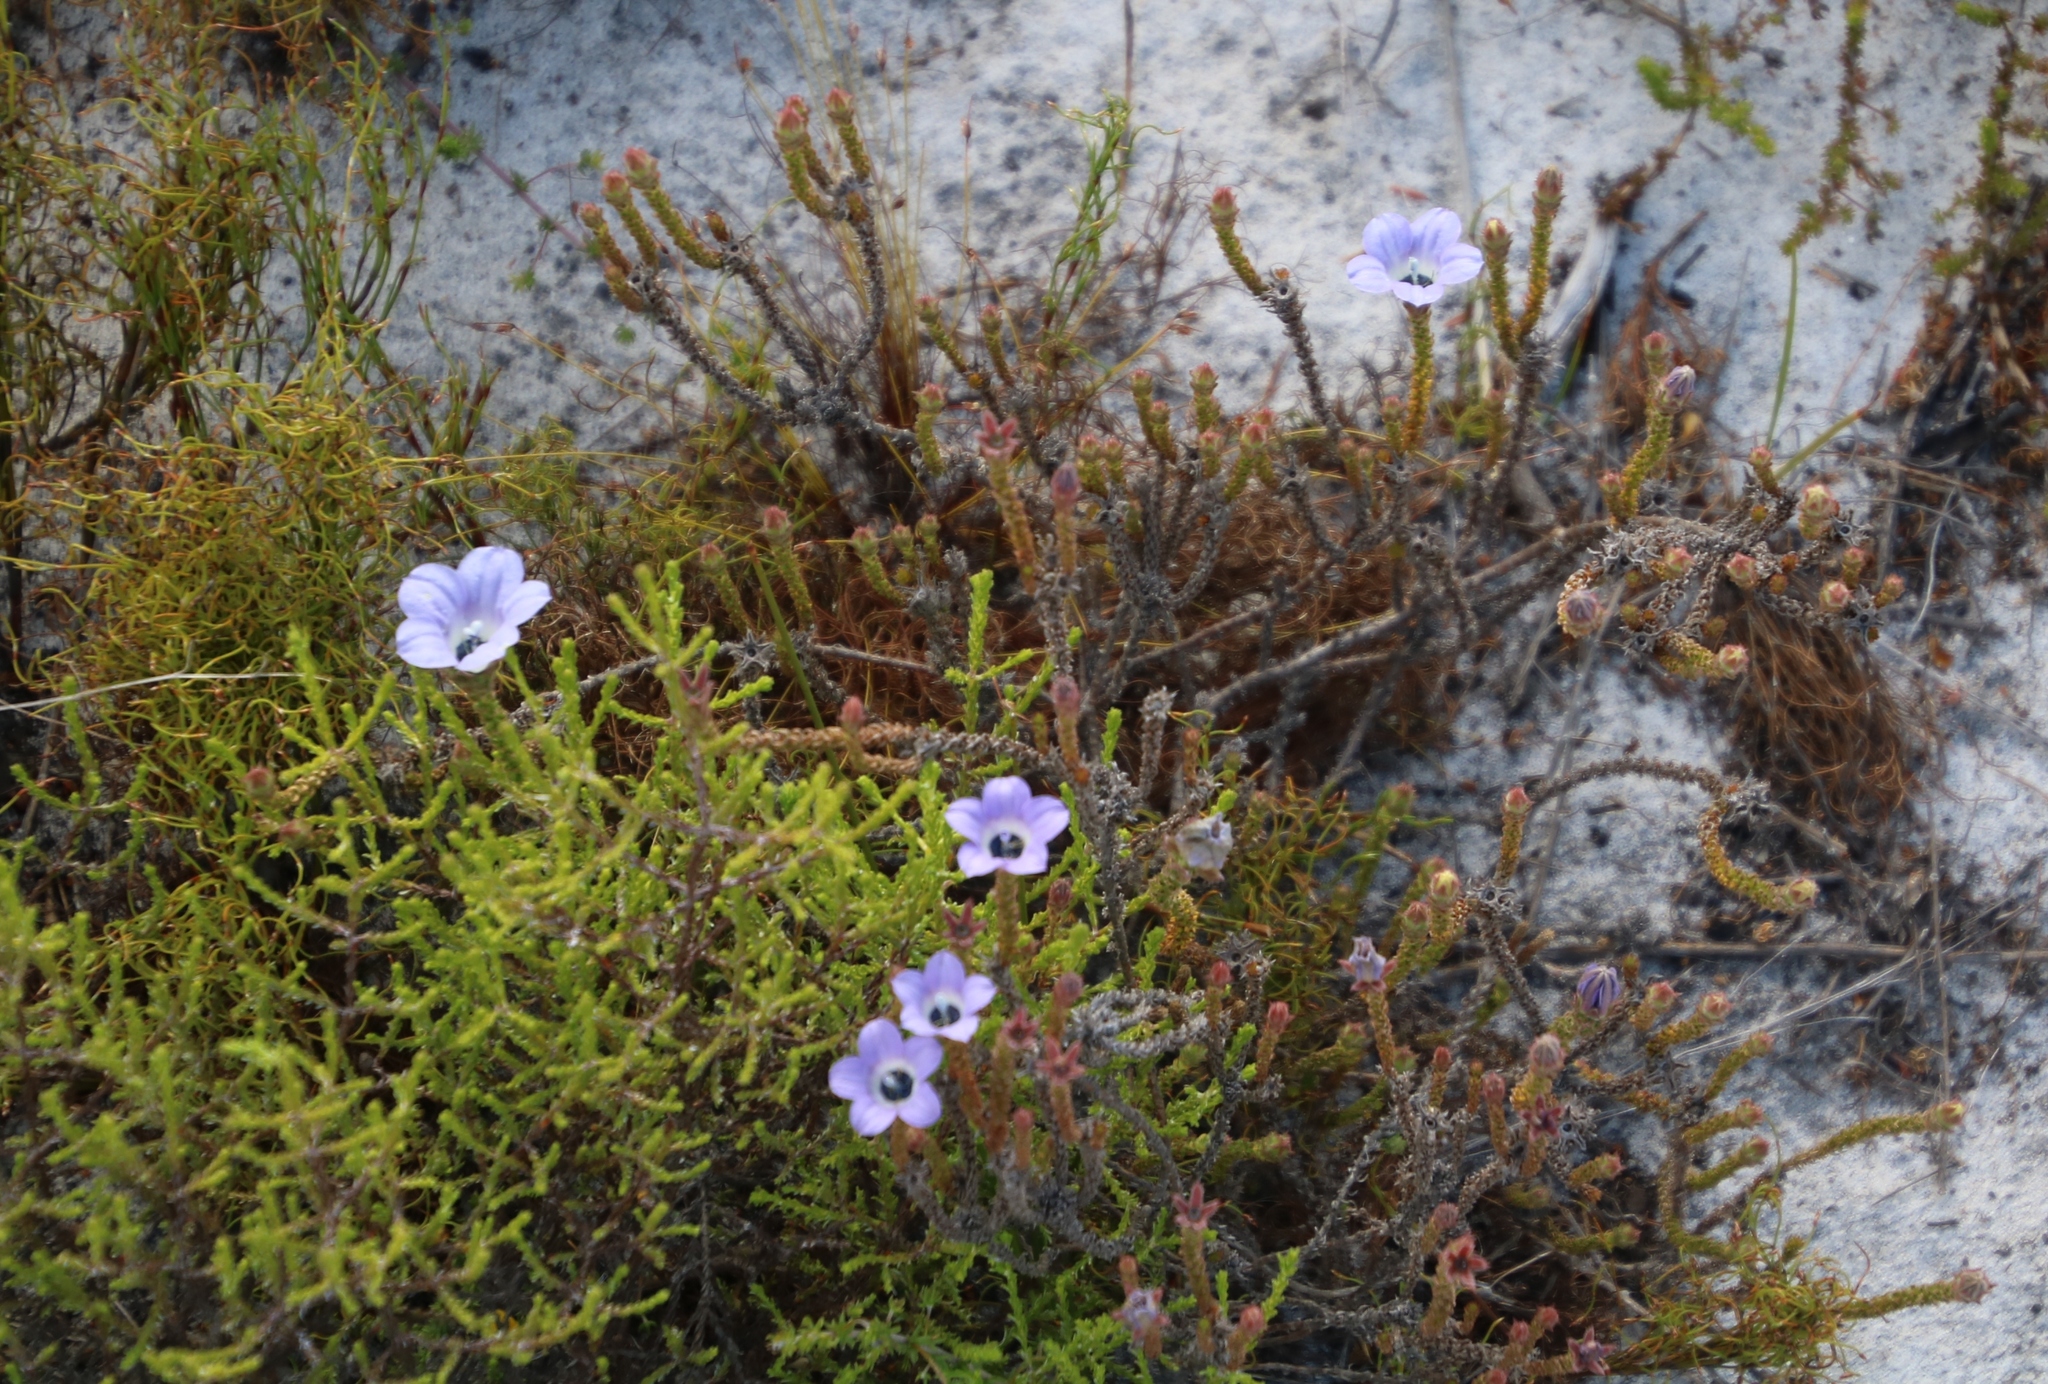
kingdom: Plantae
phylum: Tracheophyta
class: Magnoliopsida
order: Asterales
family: Campanulaceae
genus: Roella
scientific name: Roella triflora
